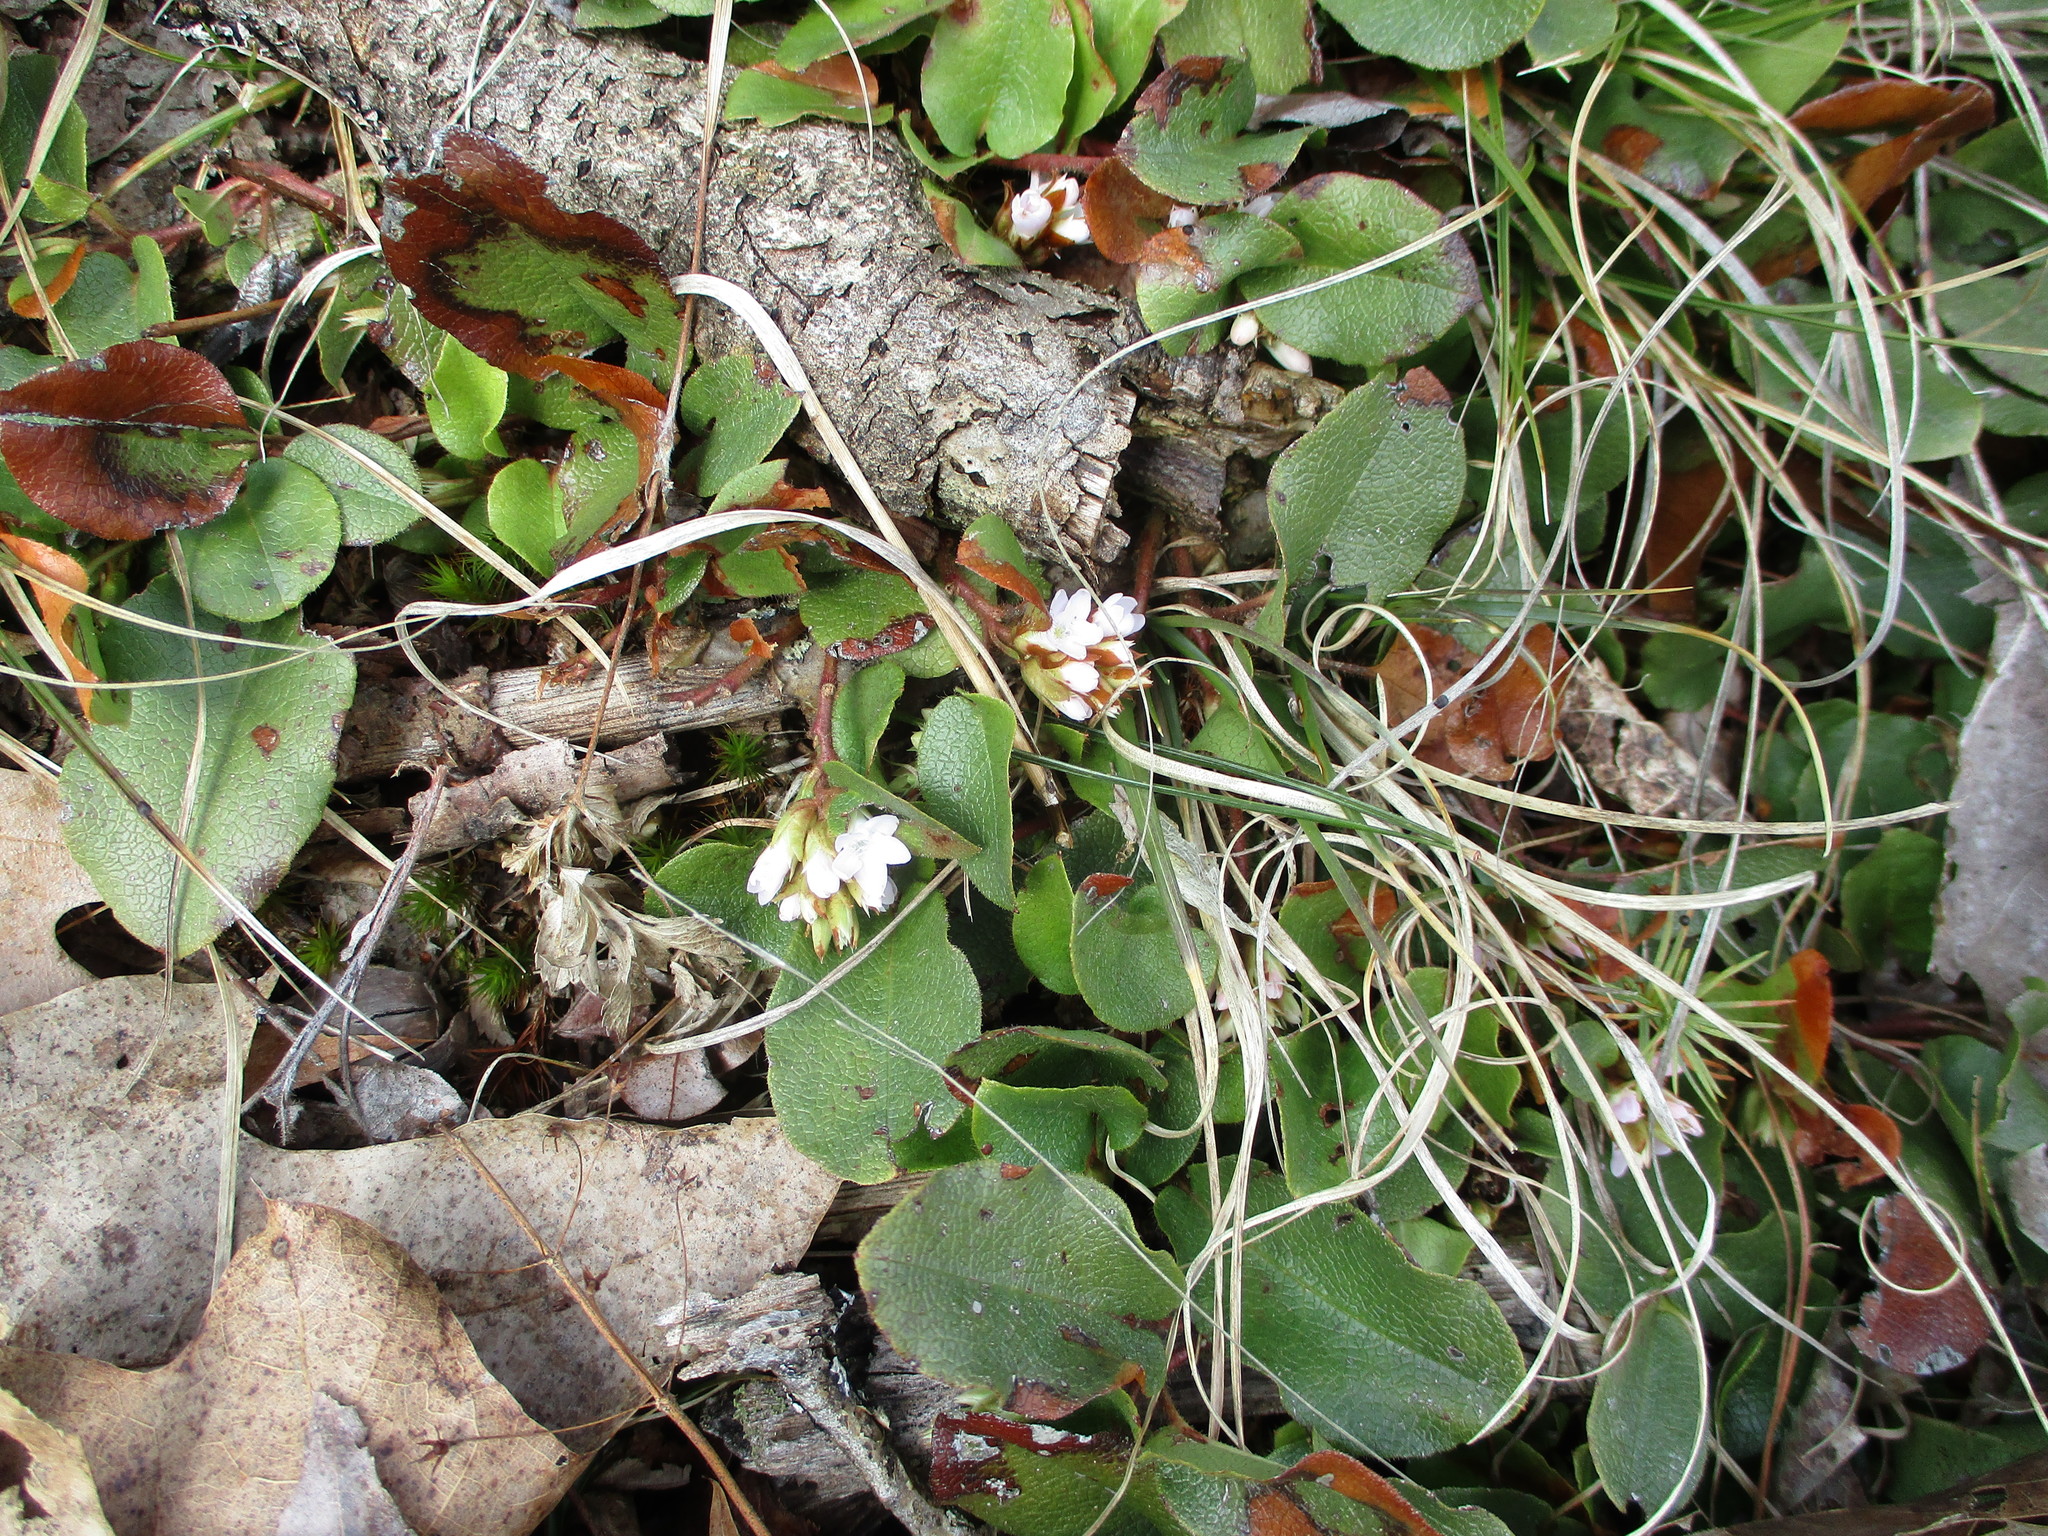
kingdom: Plantae
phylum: Tracheophyta
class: Magnoliopsida
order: Ericales
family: Ericaceae
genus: Epigaea
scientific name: Epigaea repens
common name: Gravelroot
